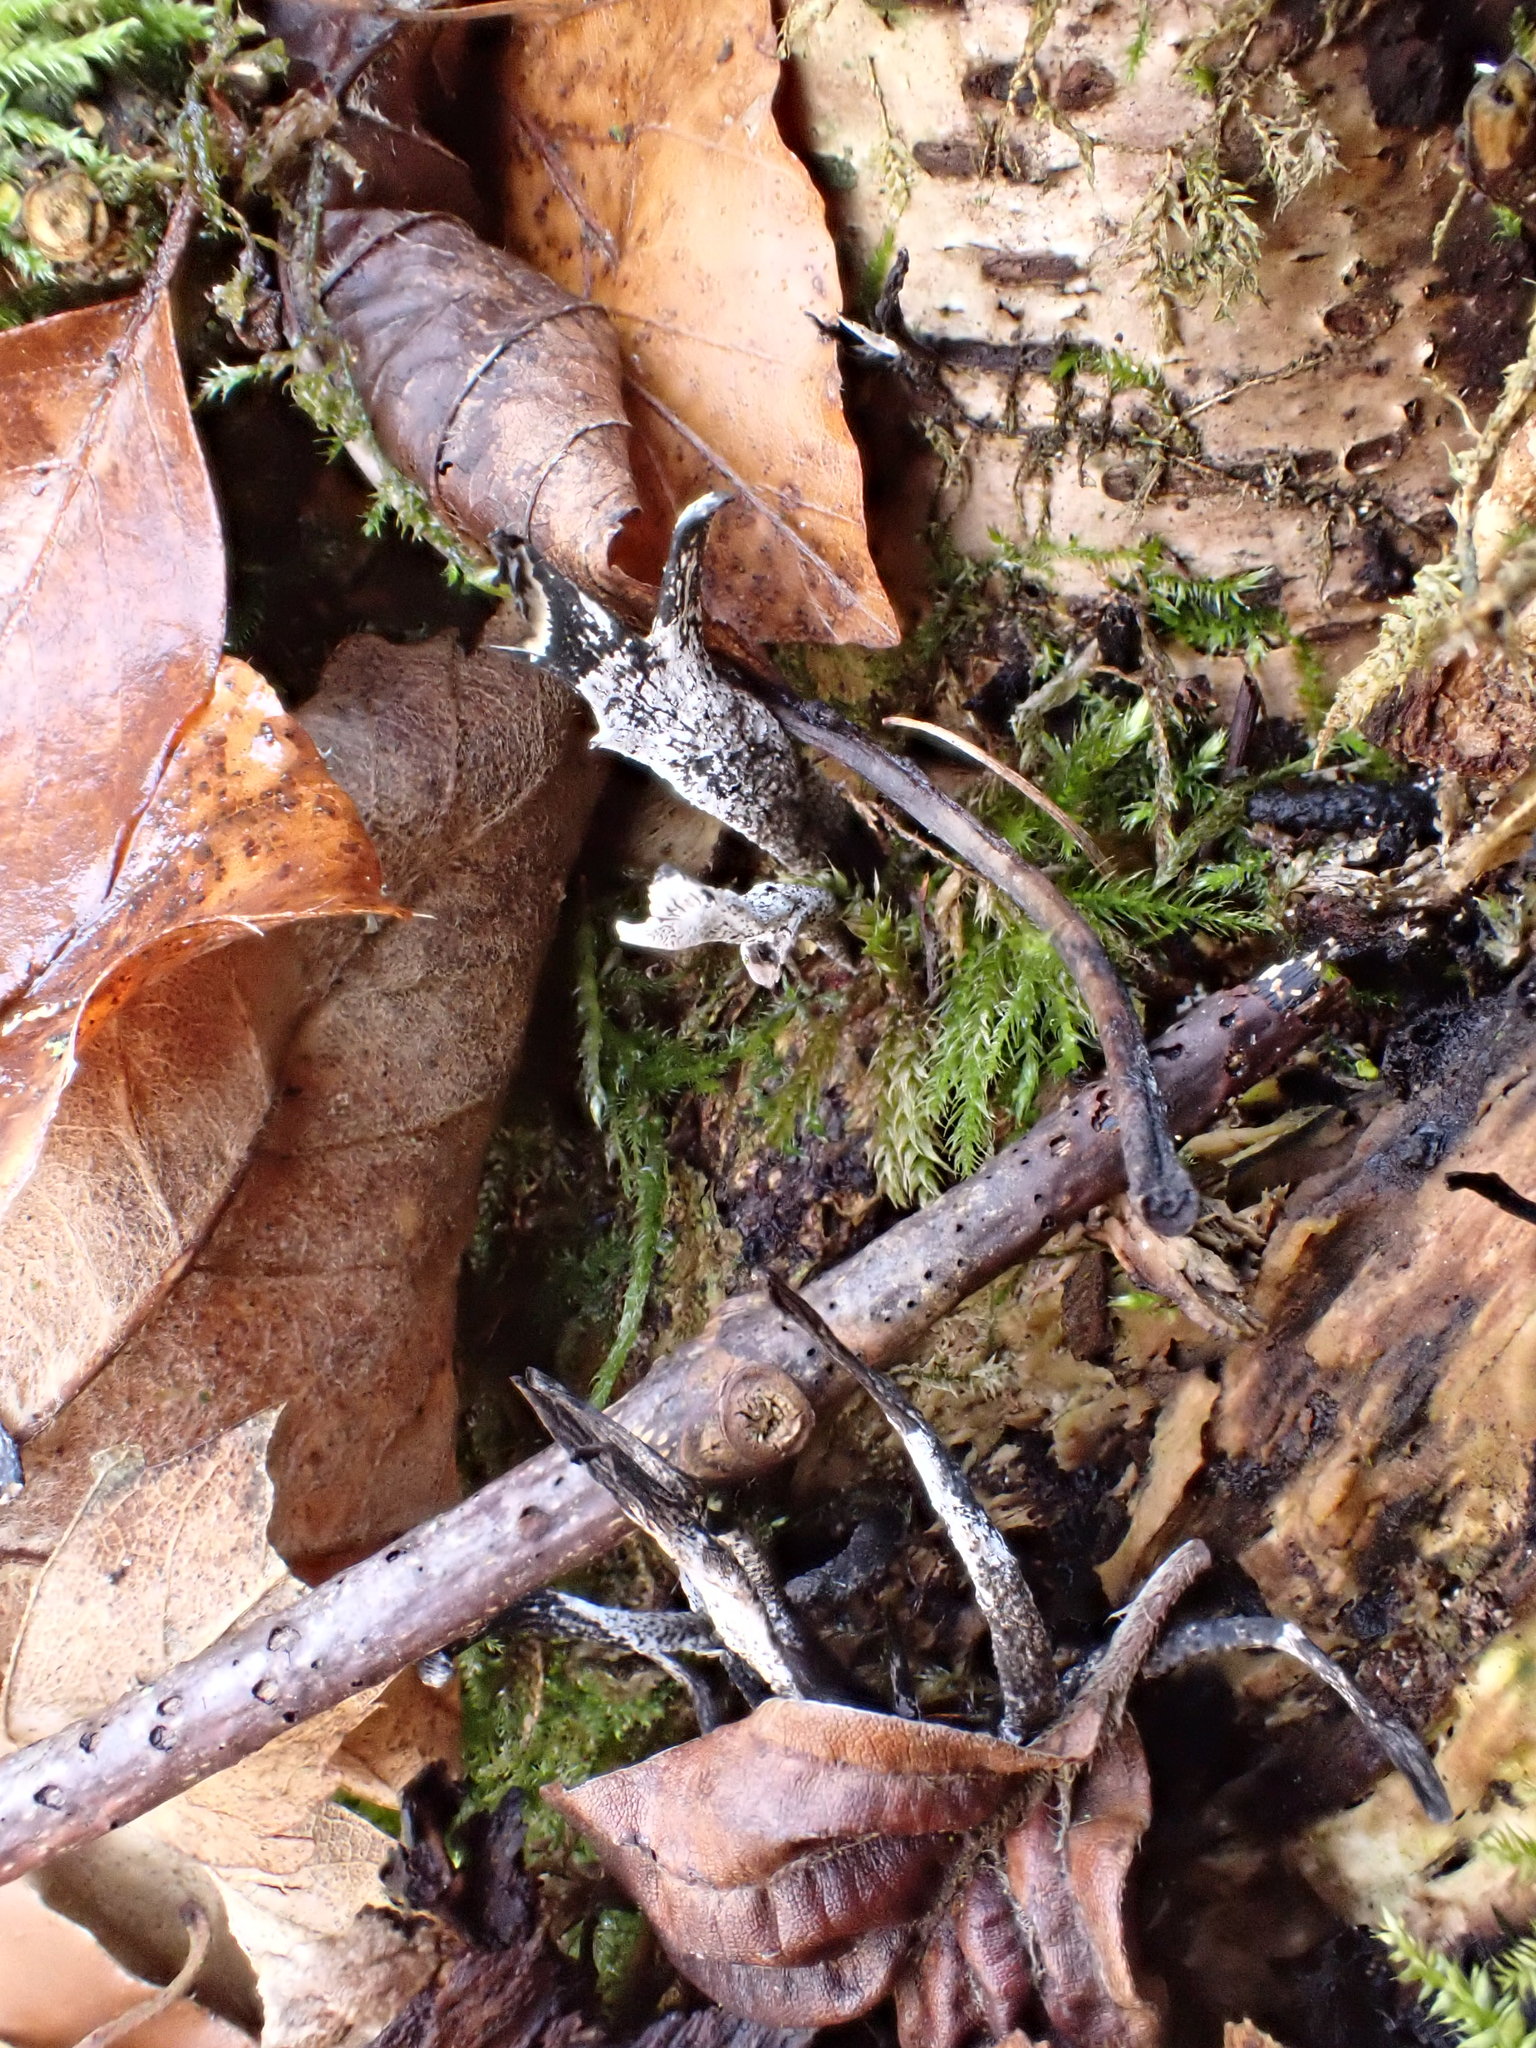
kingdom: Fungi
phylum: Ascomycota
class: Sordariomycetes
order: Xylariales
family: Xylariaceae
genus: Xylaria
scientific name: Xylaria hypoxylon
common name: Candle-snuff fungus
